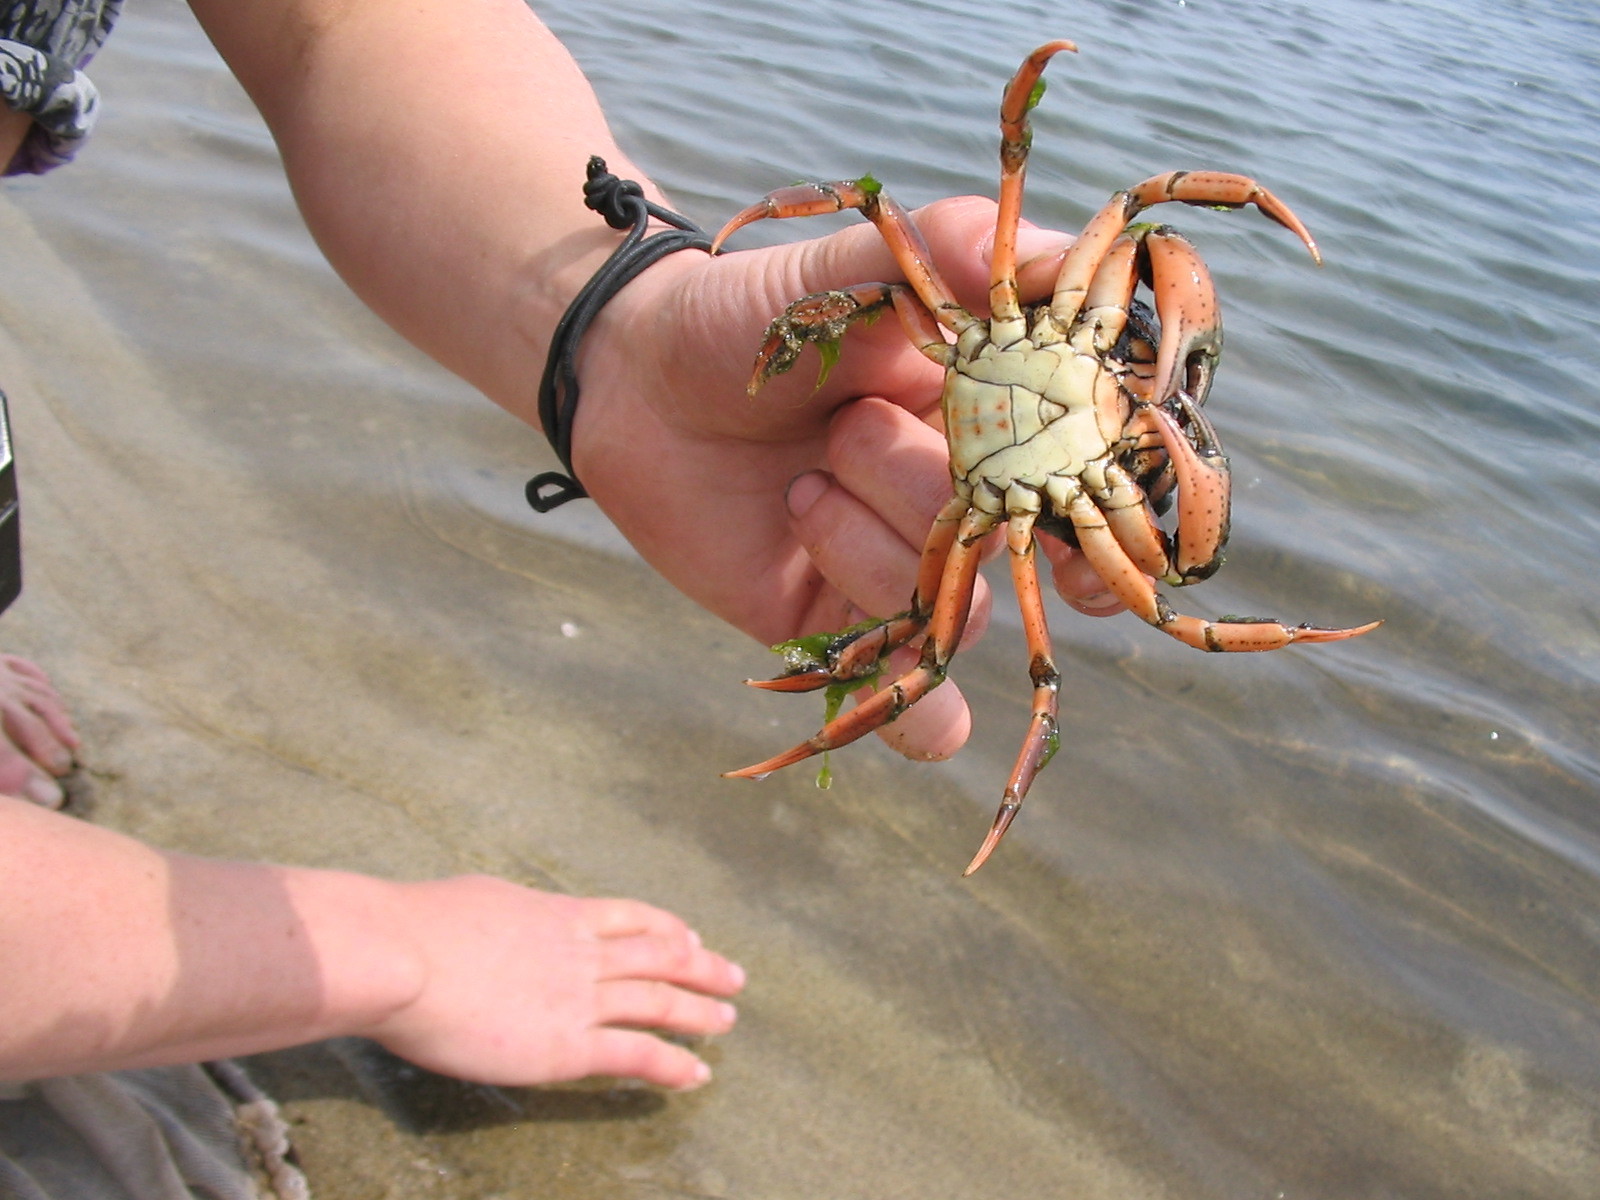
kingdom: Animalia
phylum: Arthropoda
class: Malacostraca
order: Decapoda
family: Carcinidae
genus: Carcinus
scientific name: Carcinus aestuarii
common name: Mediterranean green crab
